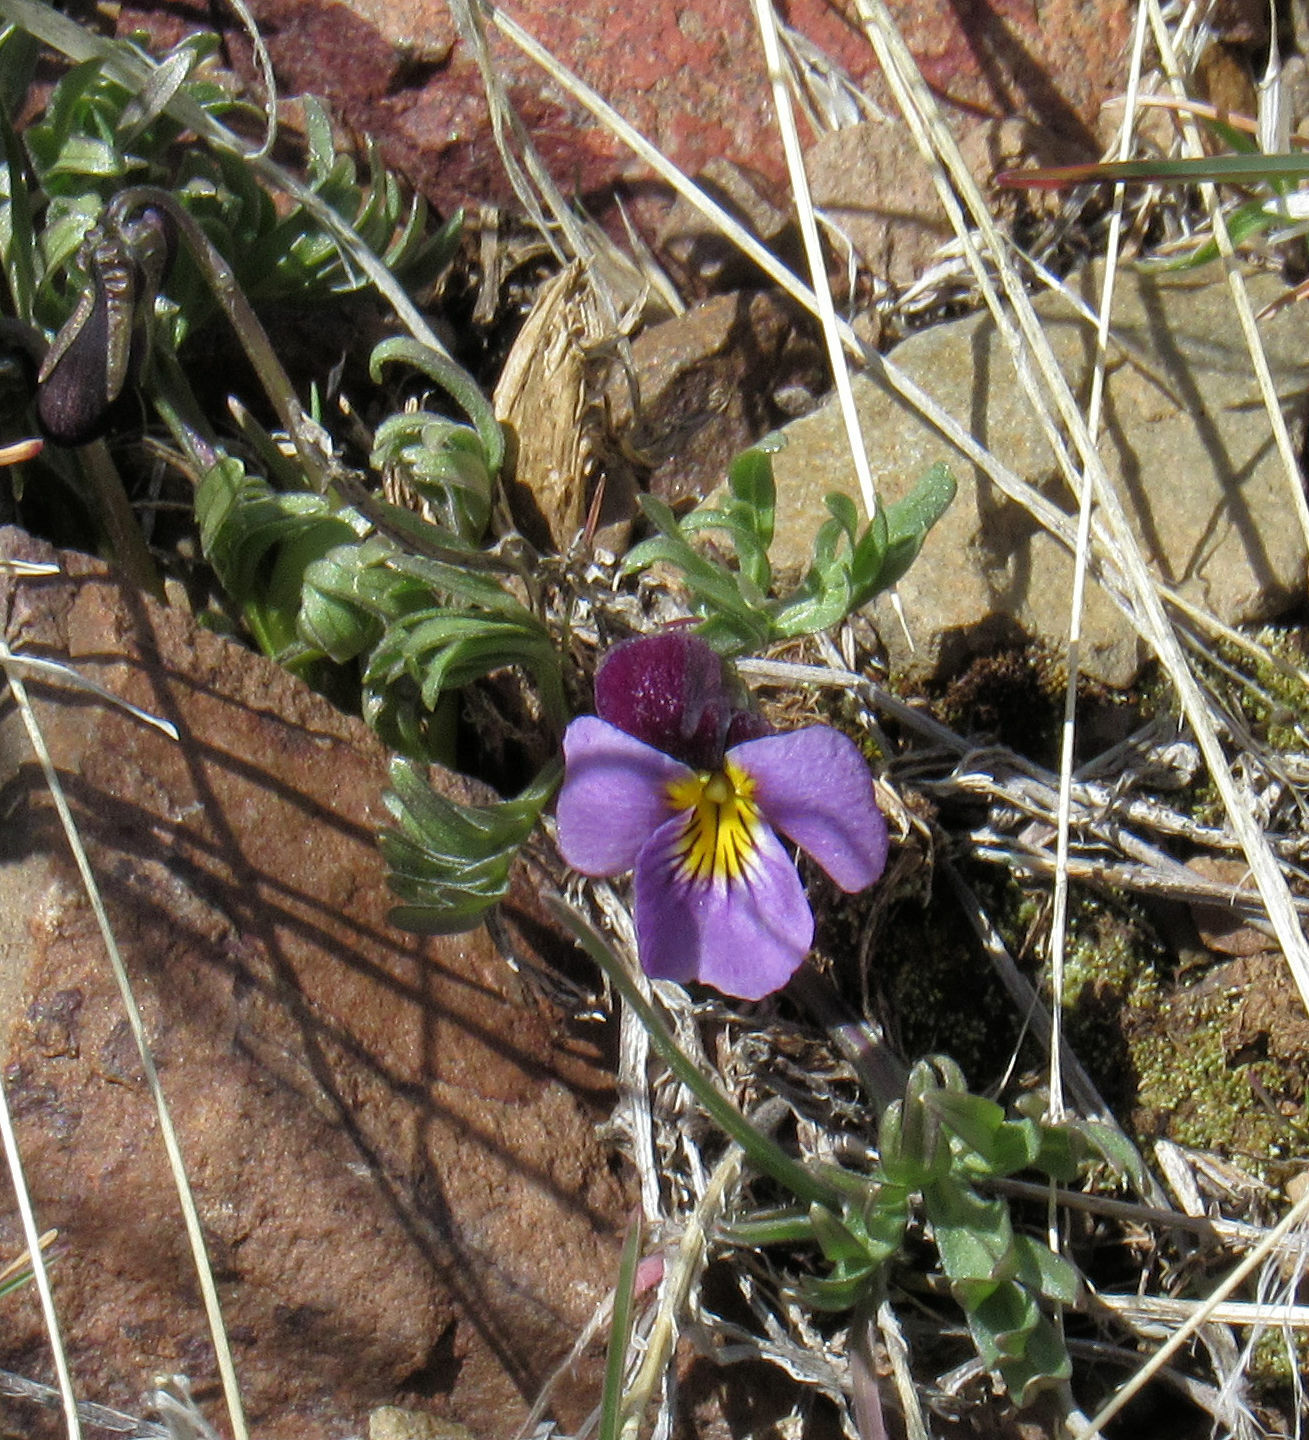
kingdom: Plantae
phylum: Tracheophyta
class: Magnoliopsida
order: Malpighiales
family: Violaceae
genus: Viola
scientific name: Viola beckwithii
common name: Beckwith's violet
